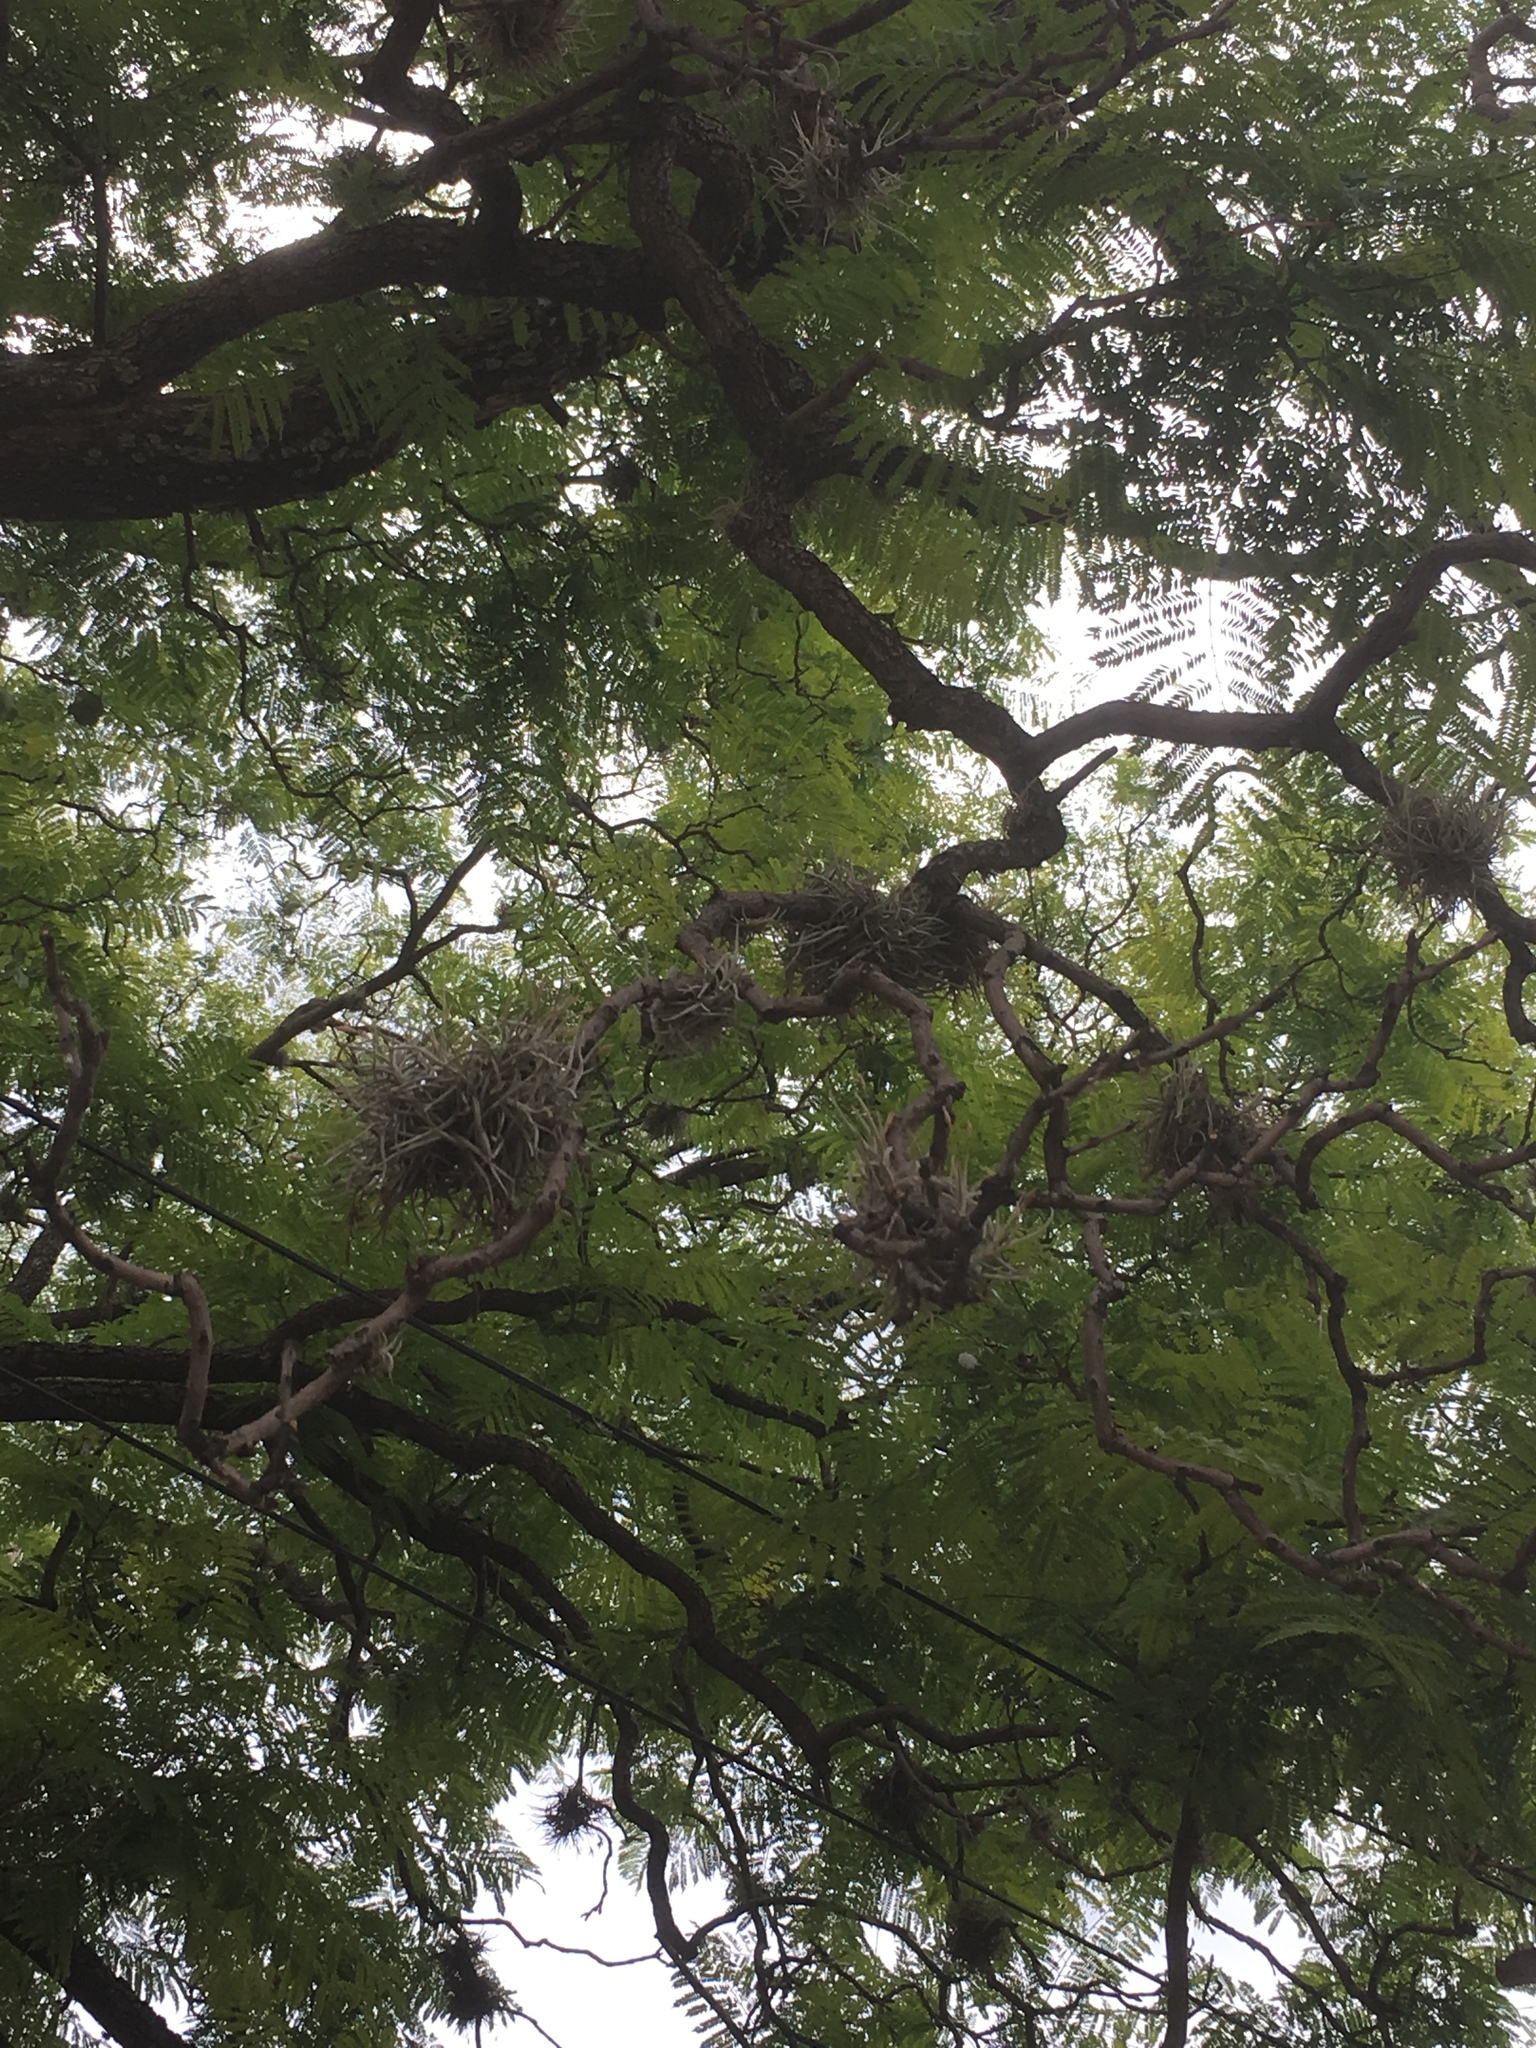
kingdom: Plantae
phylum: Tracheophyta
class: Liliopsida
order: Poales
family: Bromeliaceae
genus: Tillandsia
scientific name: Tillandsia recurvata
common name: Small ballmoss
